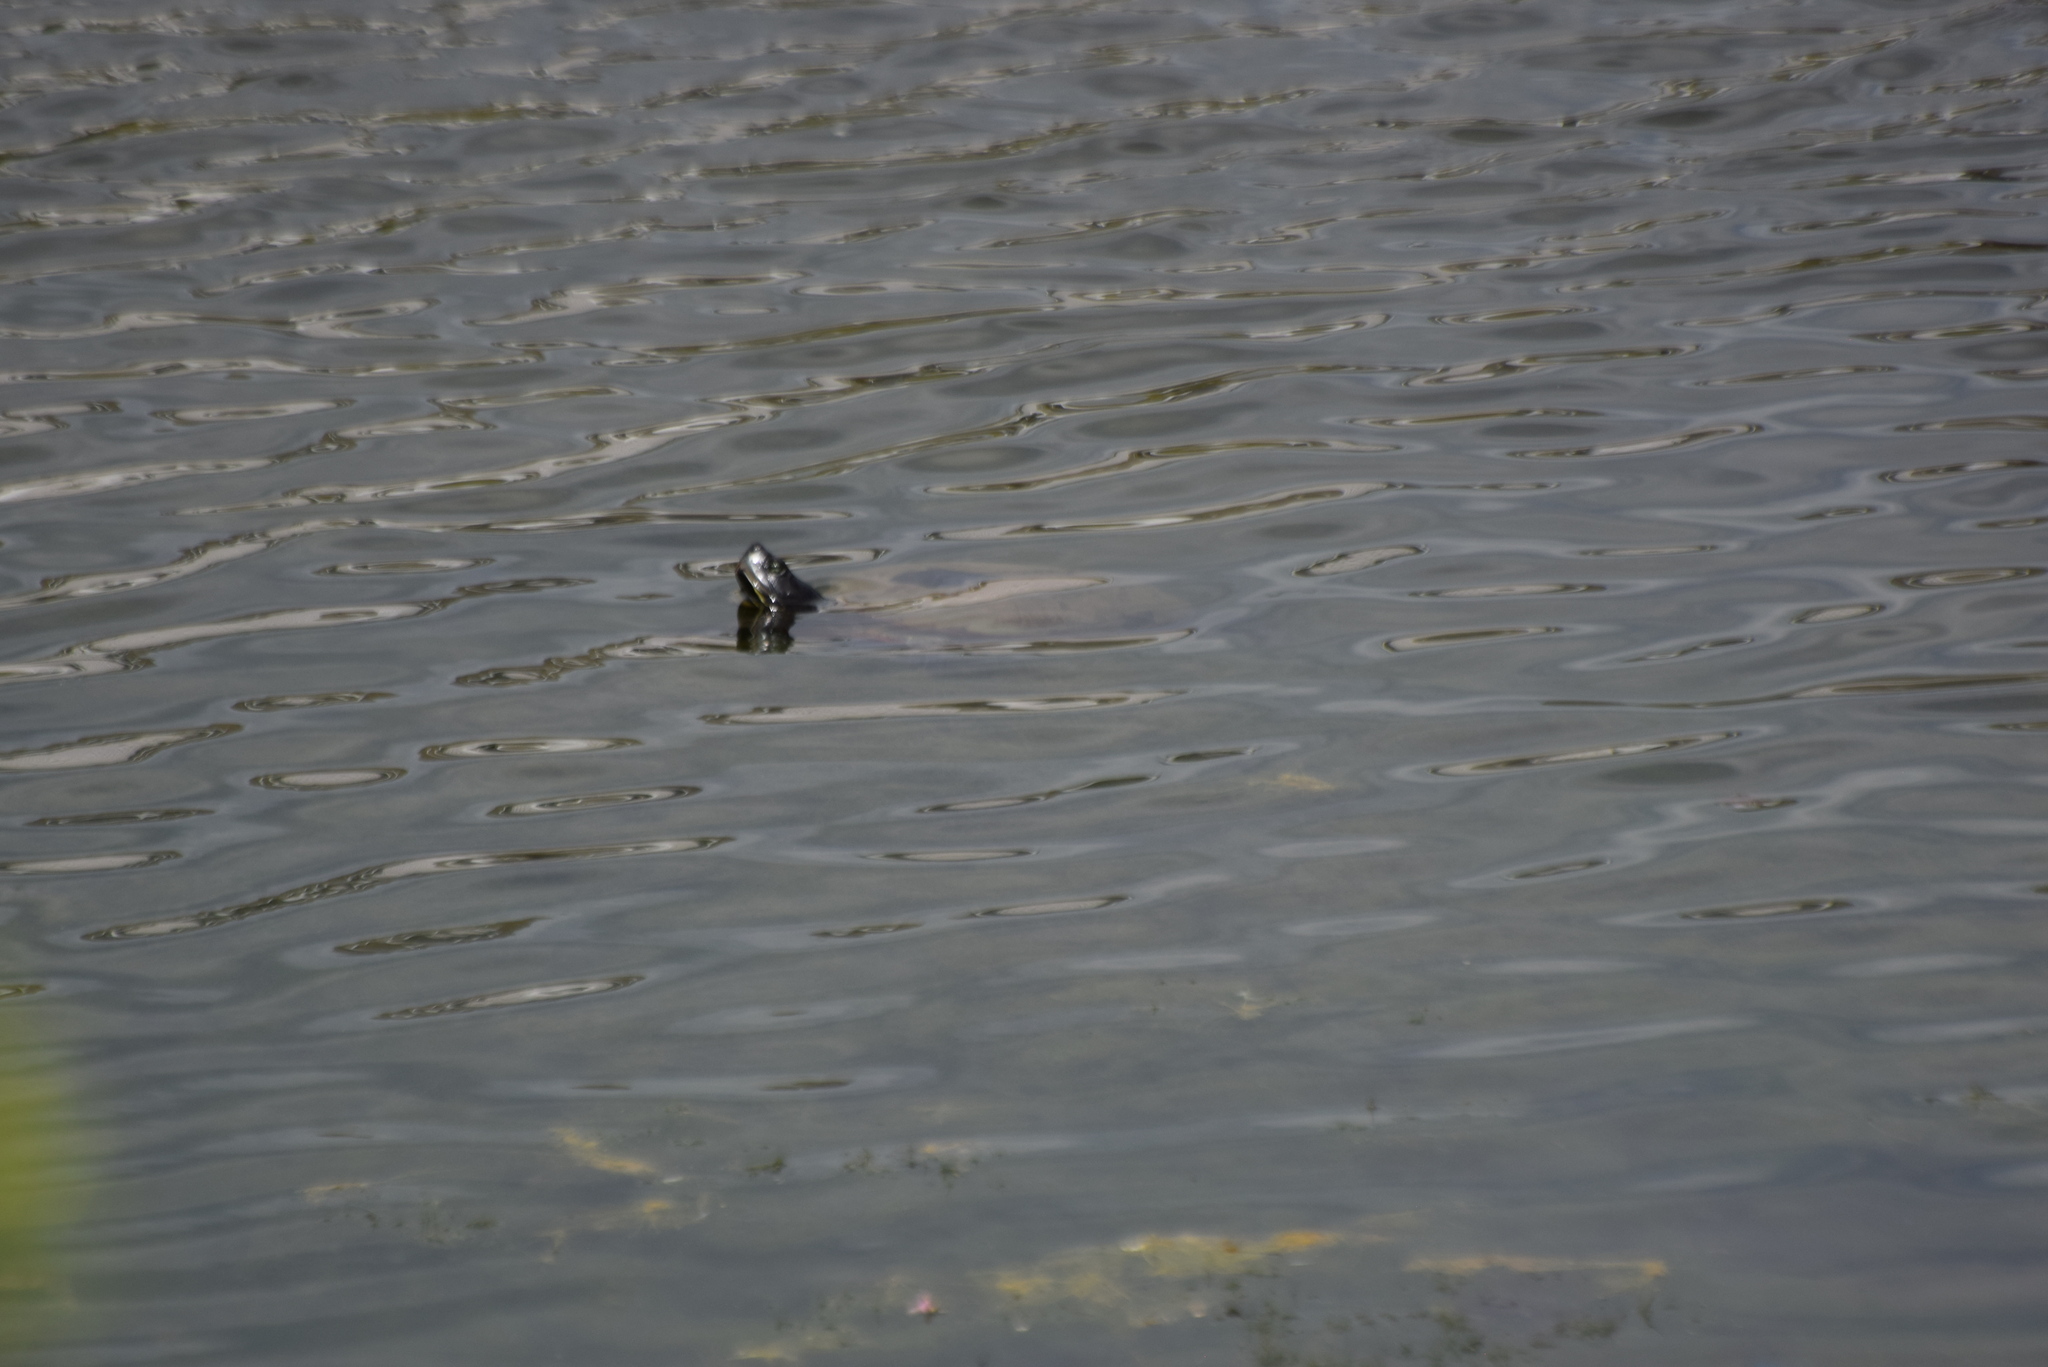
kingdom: Animalia
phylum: Chordata
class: Testudines
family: Emydidae
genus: Pseudemys
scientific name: Pseudemys rubriventris
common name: American red-bellied turtle
